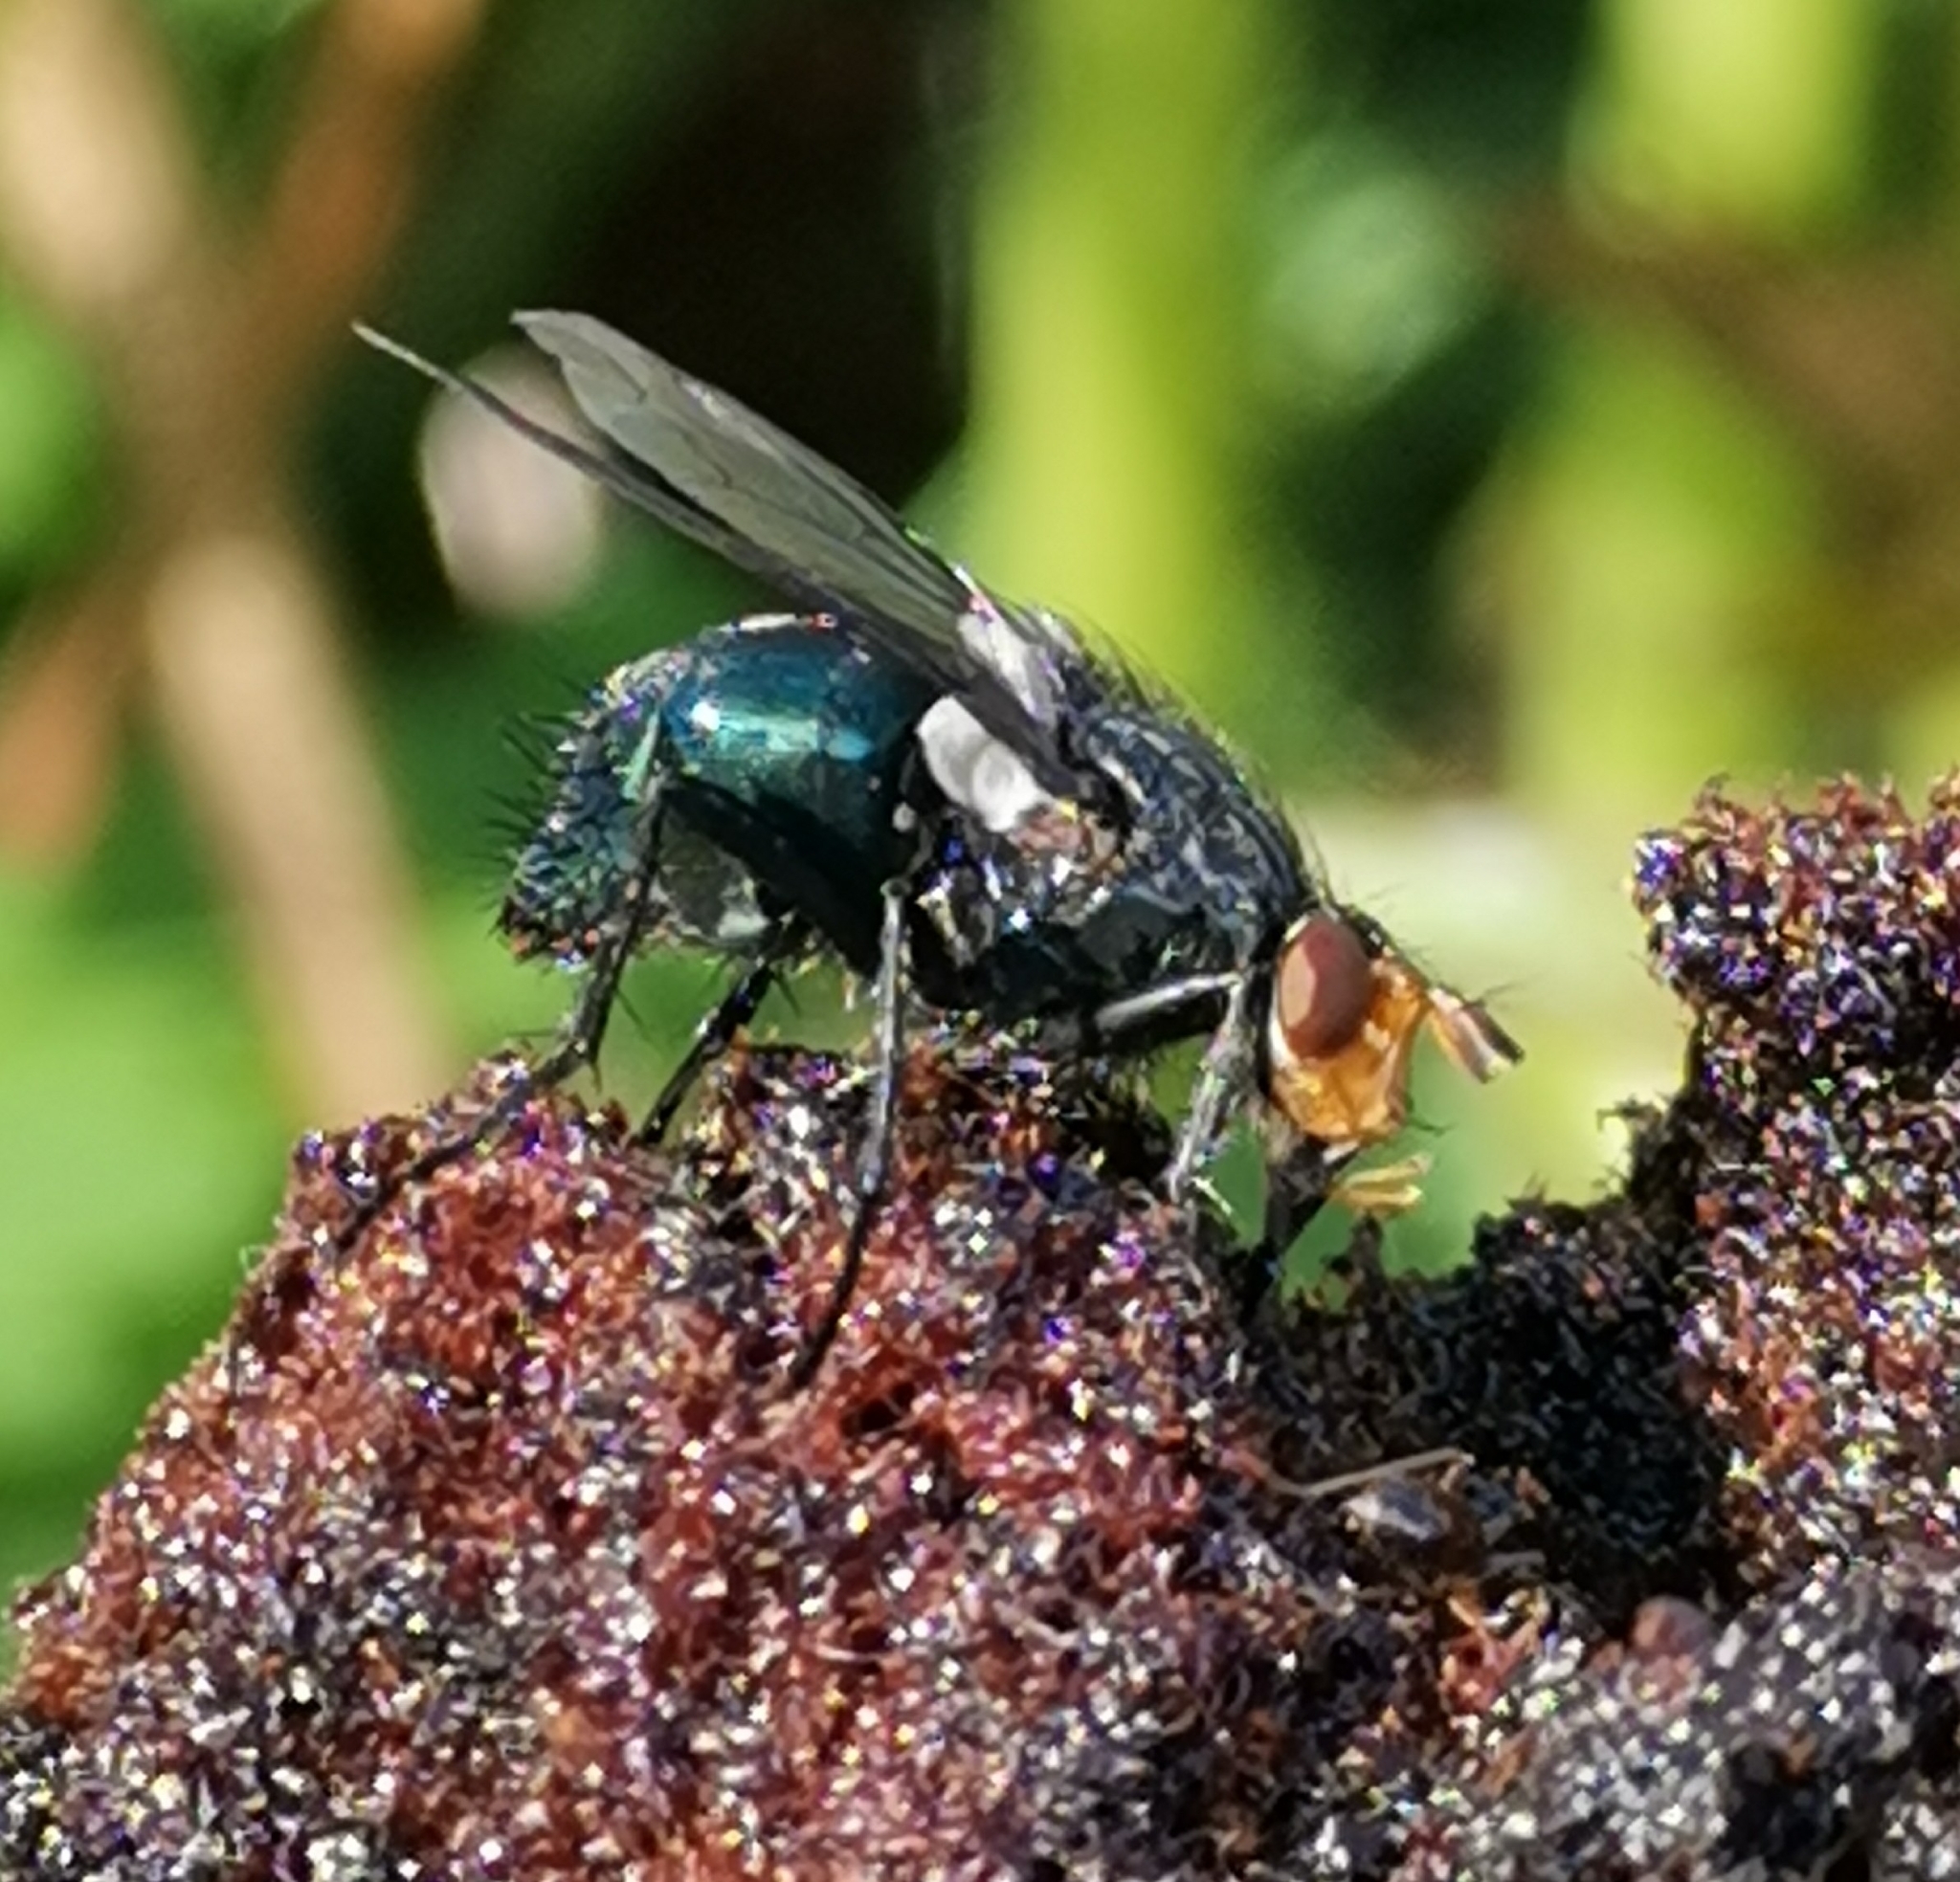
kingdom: Animalia
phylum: Arthropoda
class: Insecta
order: Diptera
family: Calliphoridae
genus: Cynomya
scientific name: Cynomya mortuorum
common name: Bluebottle blow fly
